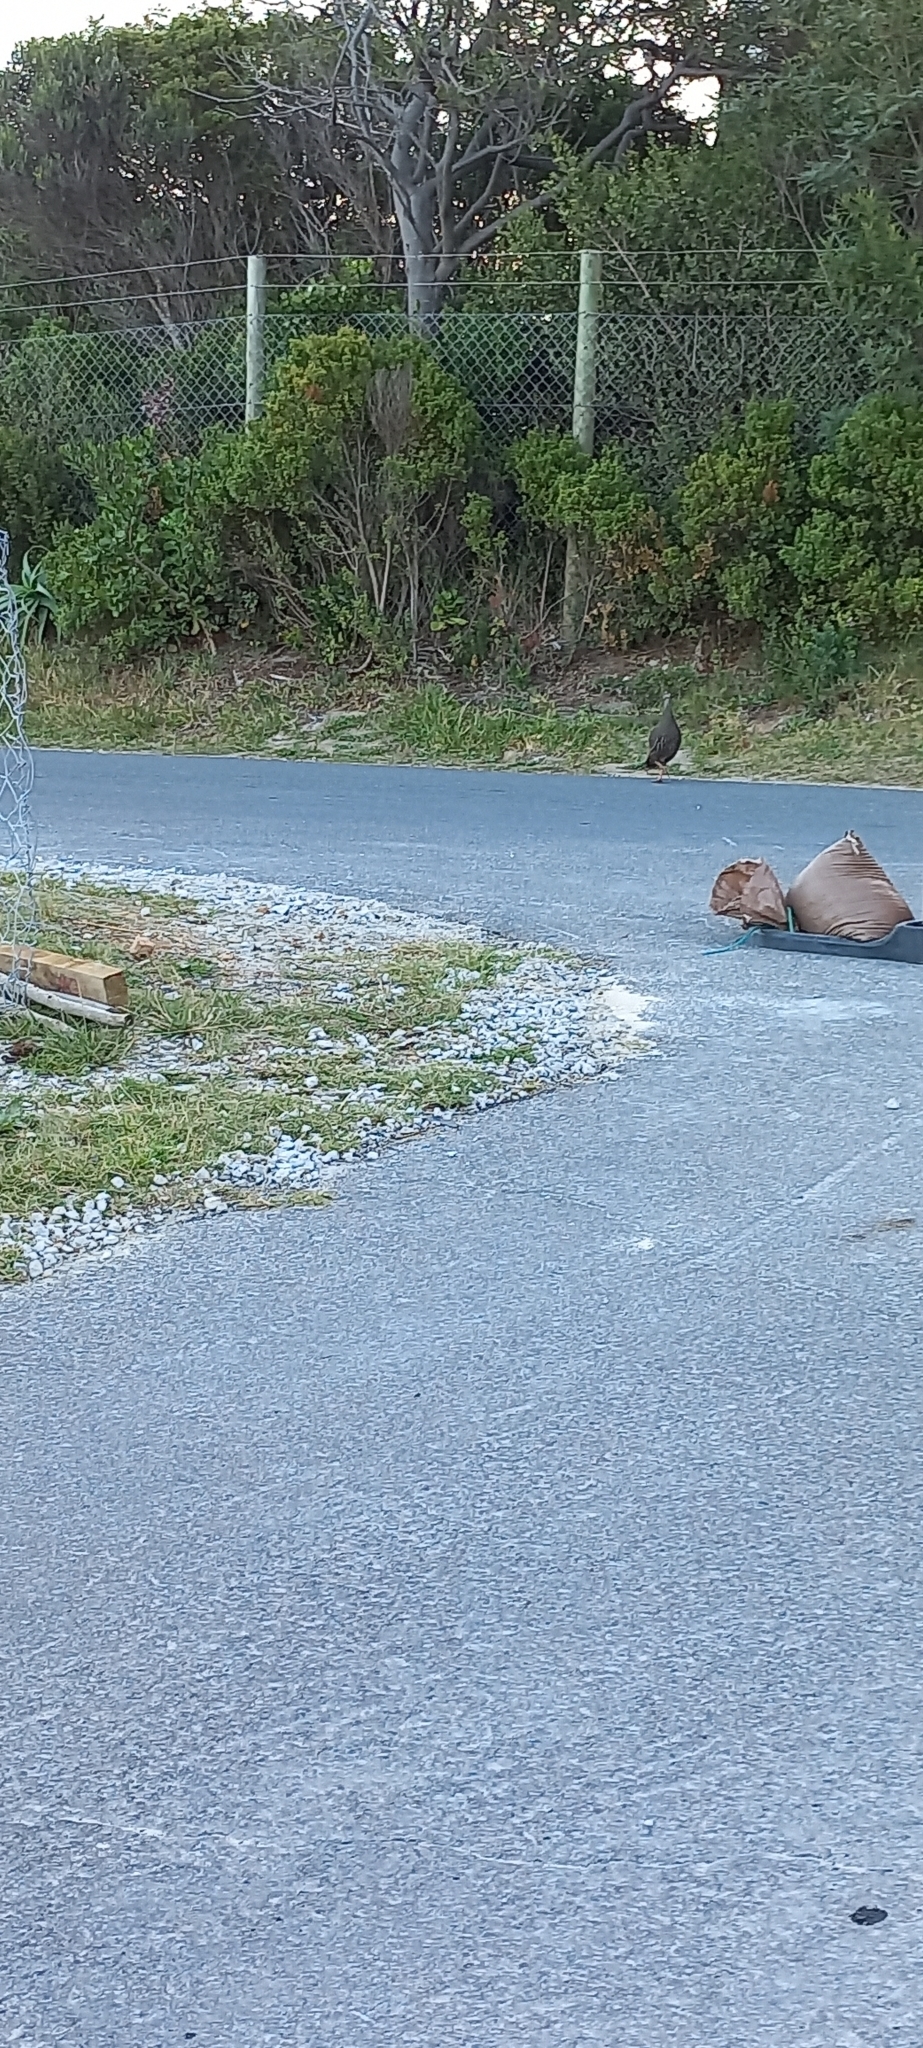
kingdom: Animalia
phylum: Chordata
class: Aves
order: Galliformes
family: Phasianidae
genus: Pternistis
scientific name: Pternistis capensis
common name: Cape spurfowl
